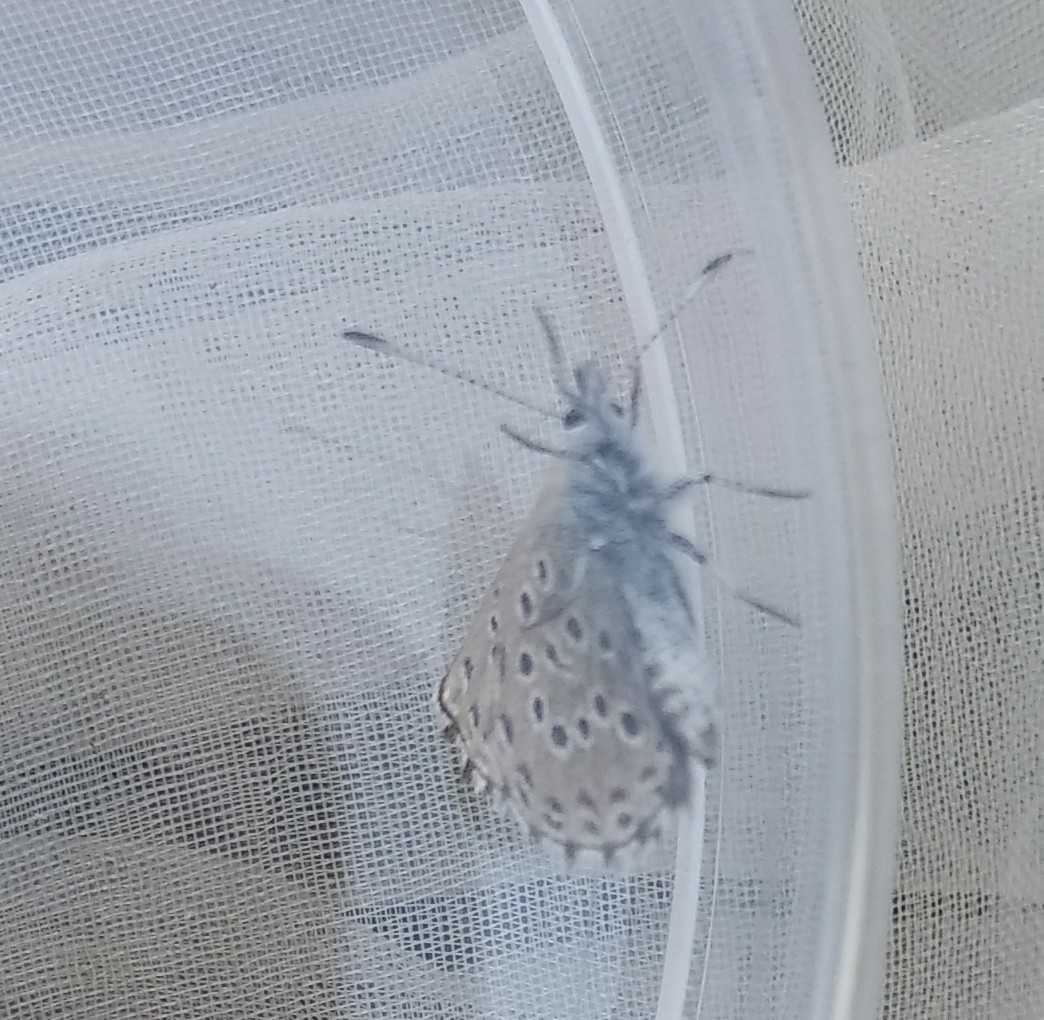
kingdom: Animalia
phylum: Arthropoda
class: Insecta
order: Lepidoptera
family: Lycaenidae
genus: Pseudophilotes
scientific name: Pseudophilotes baton
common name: Baton blue
